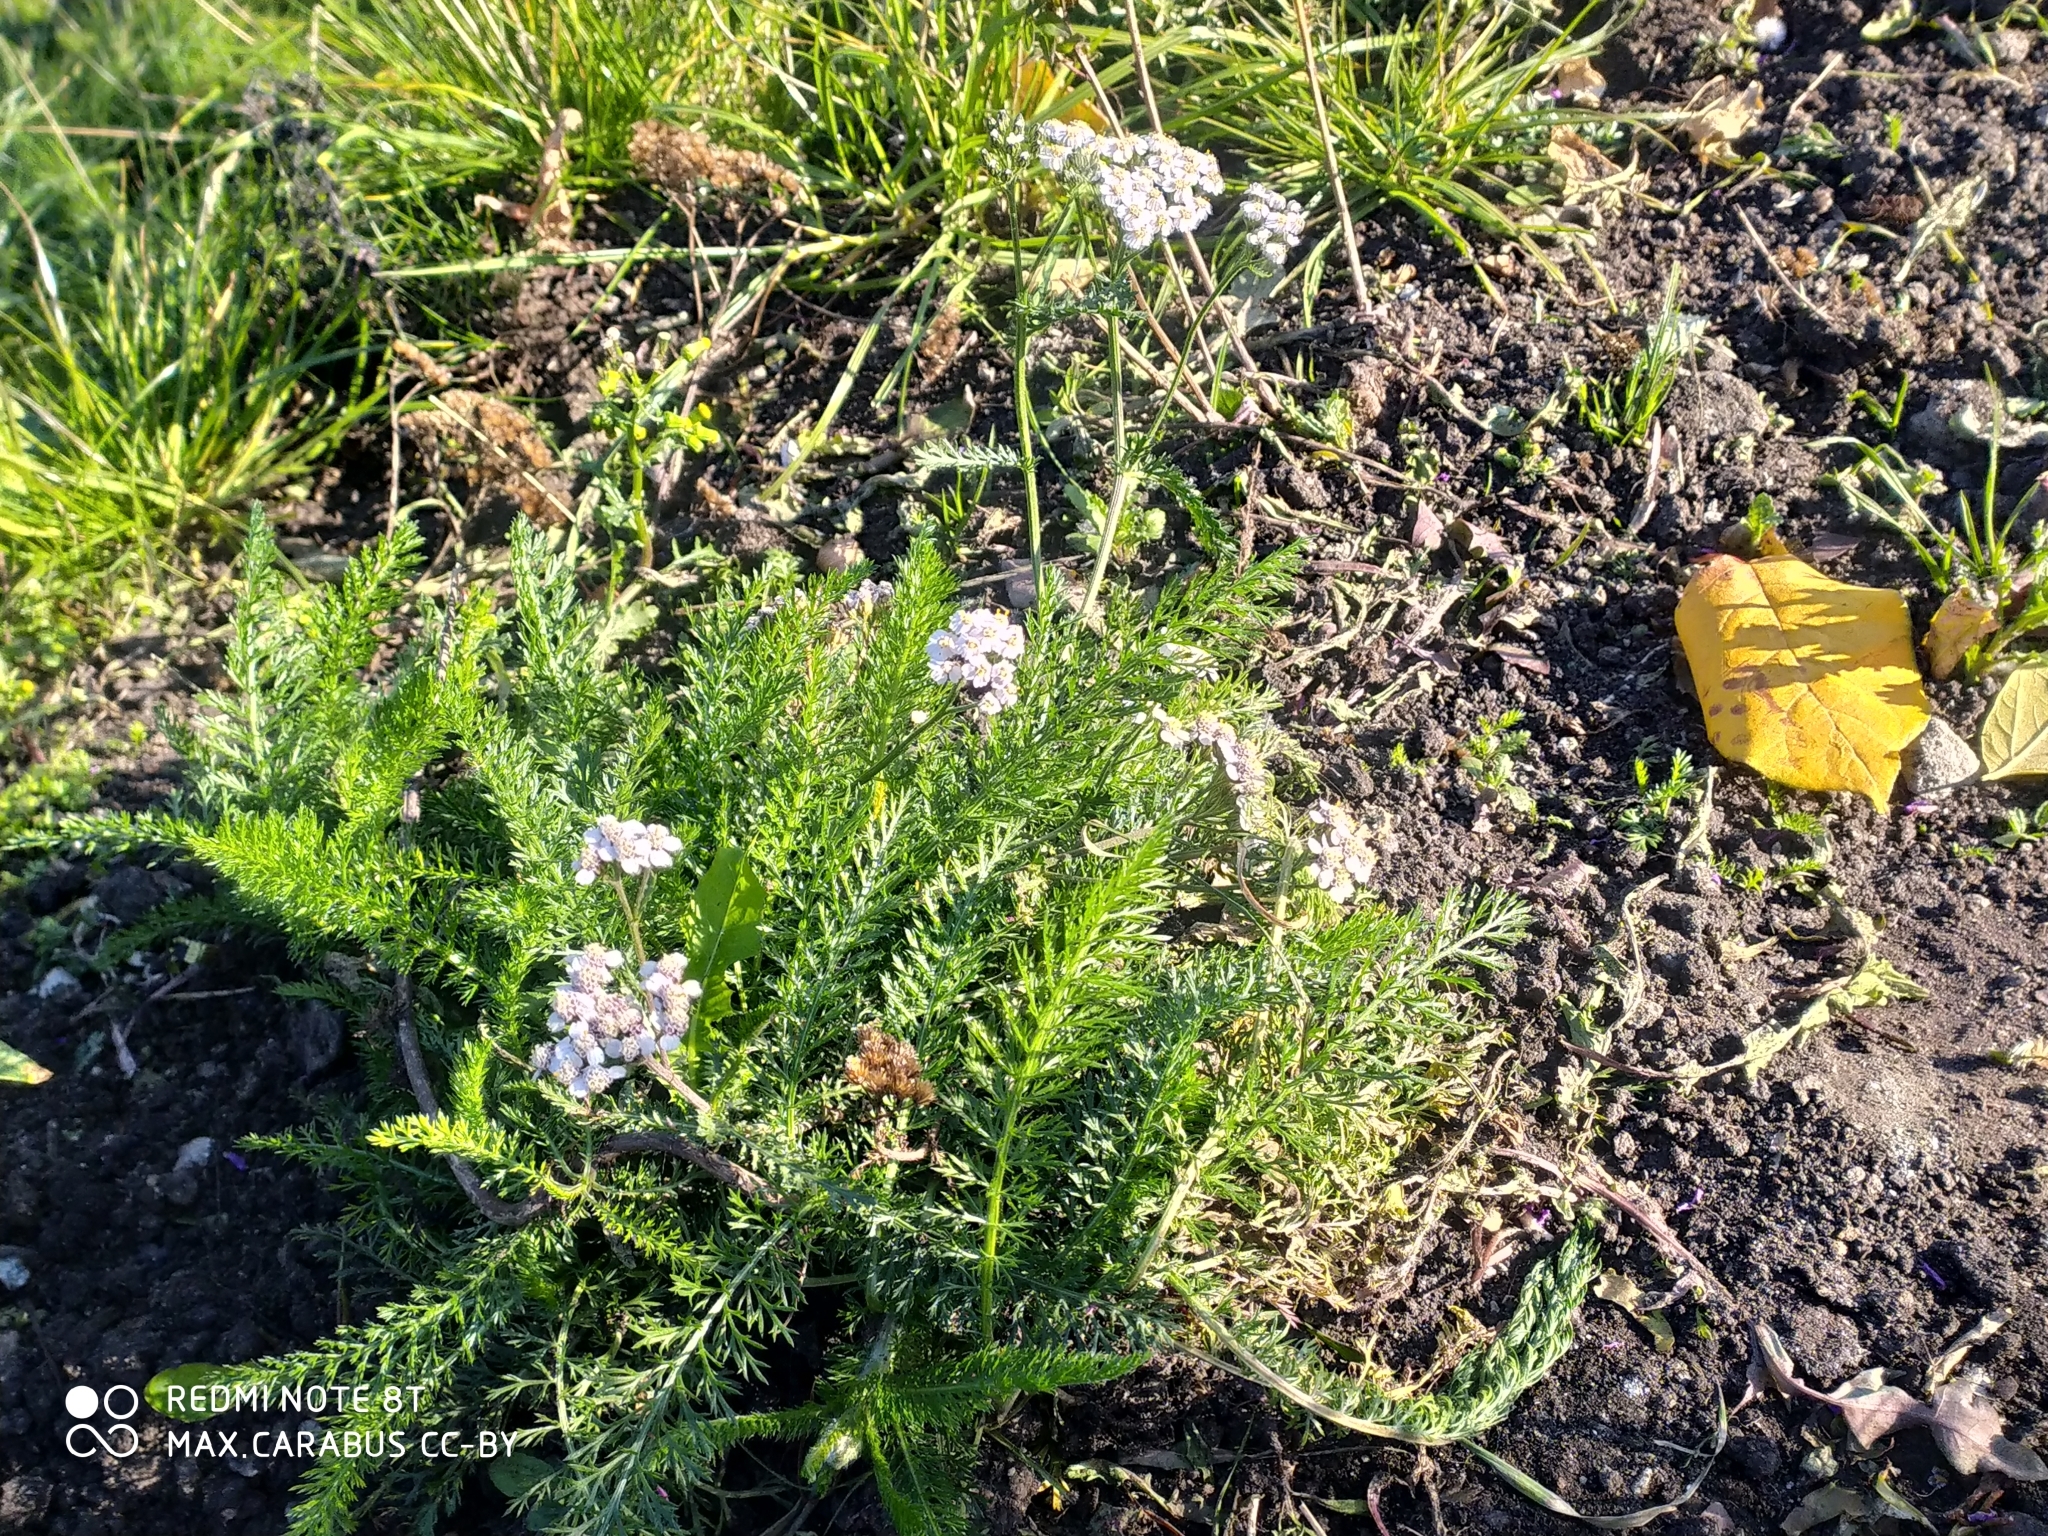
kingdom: Plantae
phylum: Tracheophyta
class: Magnoliopsida
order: Asterales
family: Asteraceae
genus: Achillea
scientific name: Achillea millefolium
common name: Yarrow
